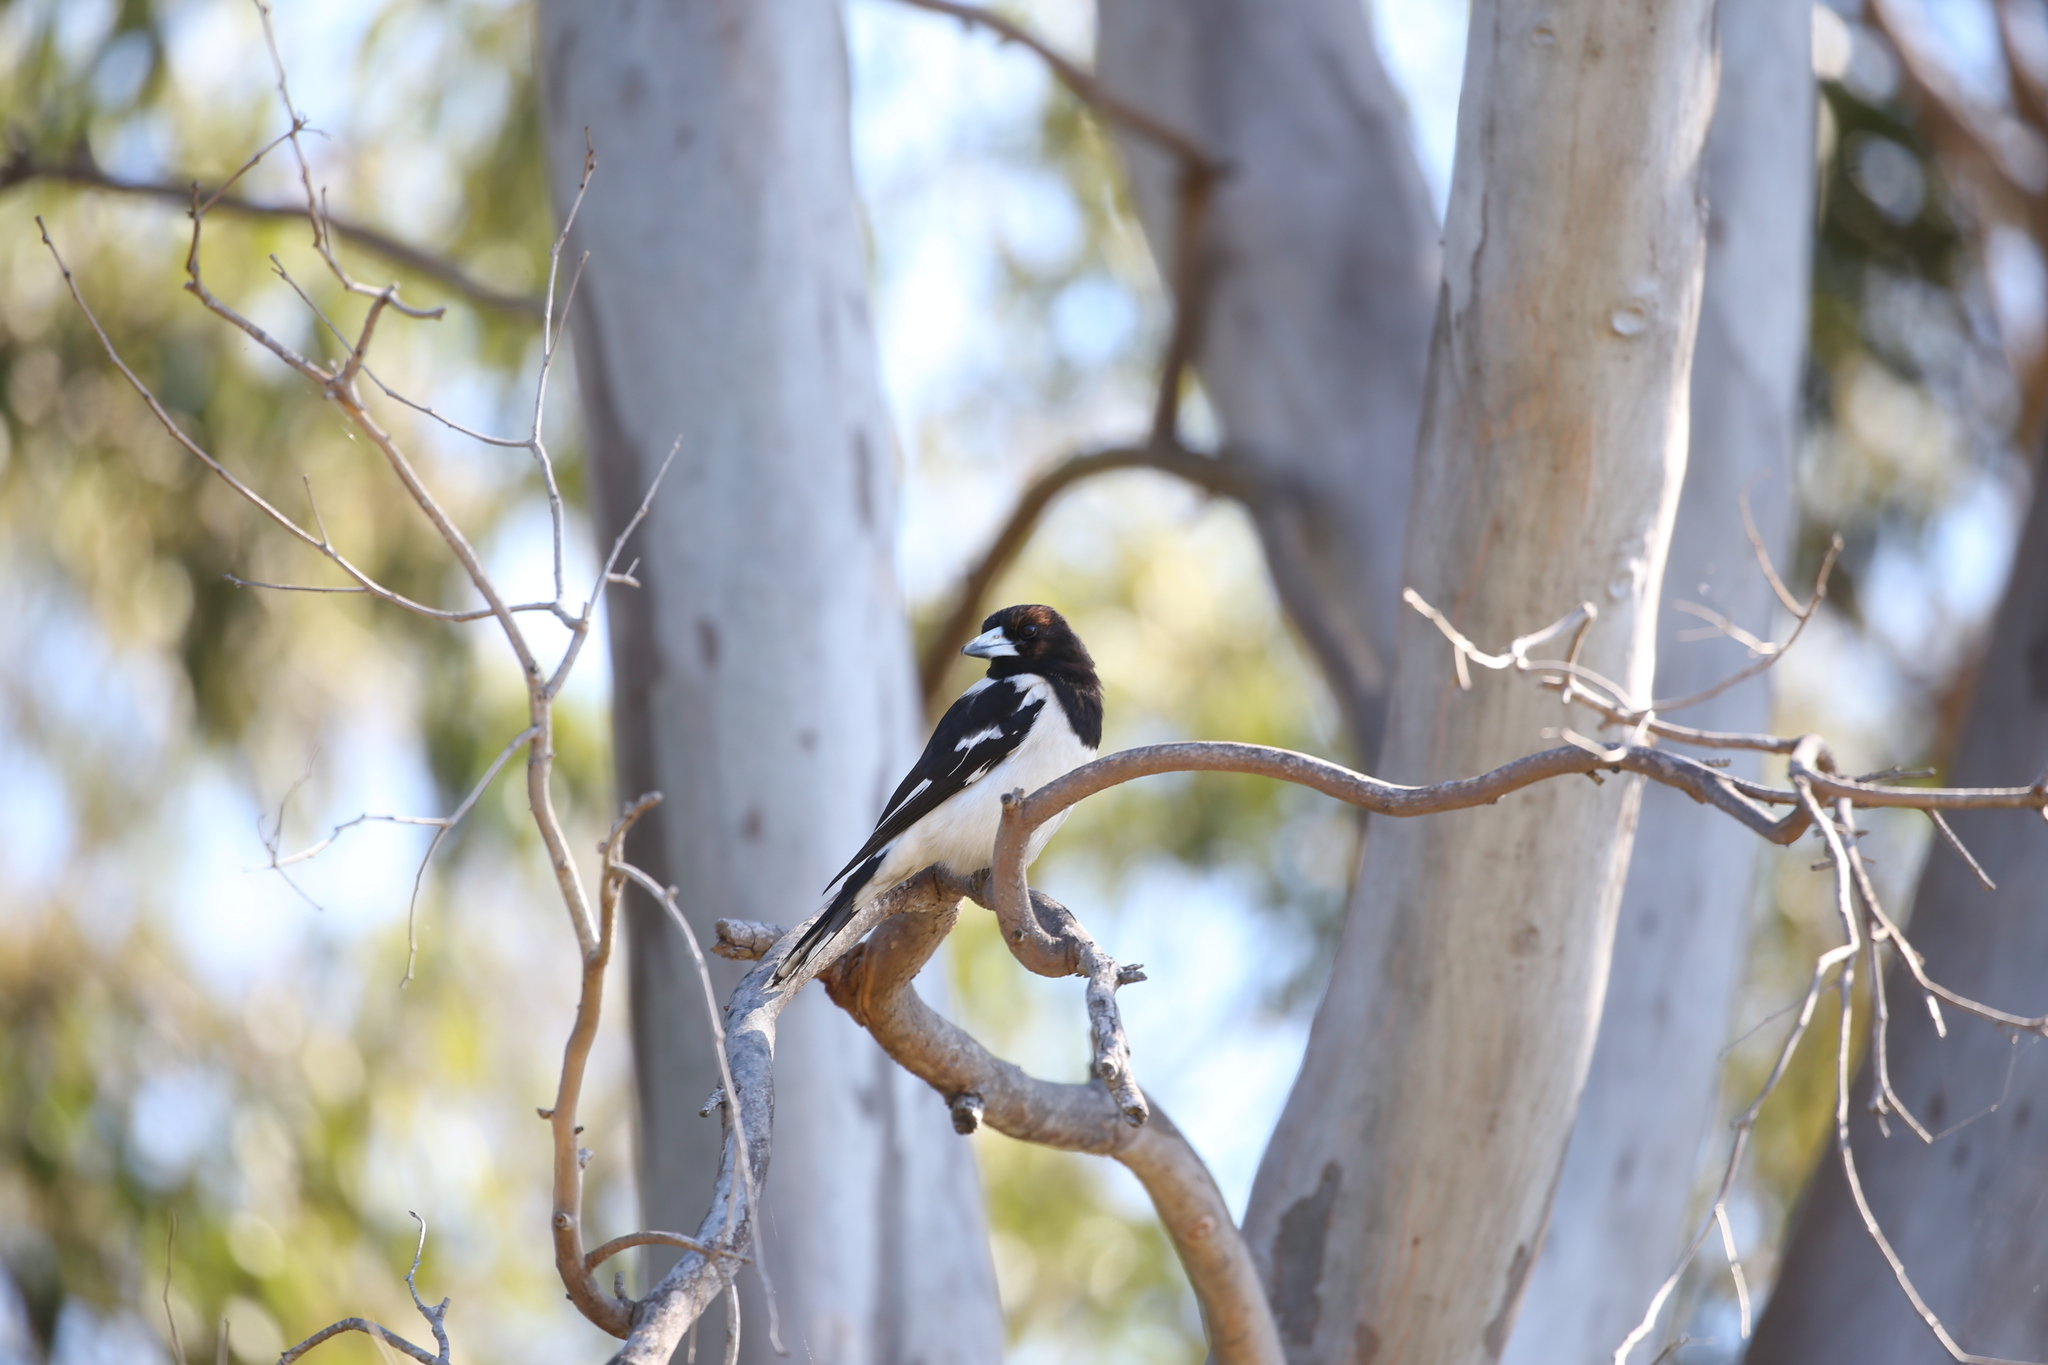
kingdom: Animalia
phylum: Chordata
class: Aves
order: Passeriformes
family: Cracticidae
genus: Cracticus
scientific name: Cracticus nigrogularis
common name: Pied butcherbird
